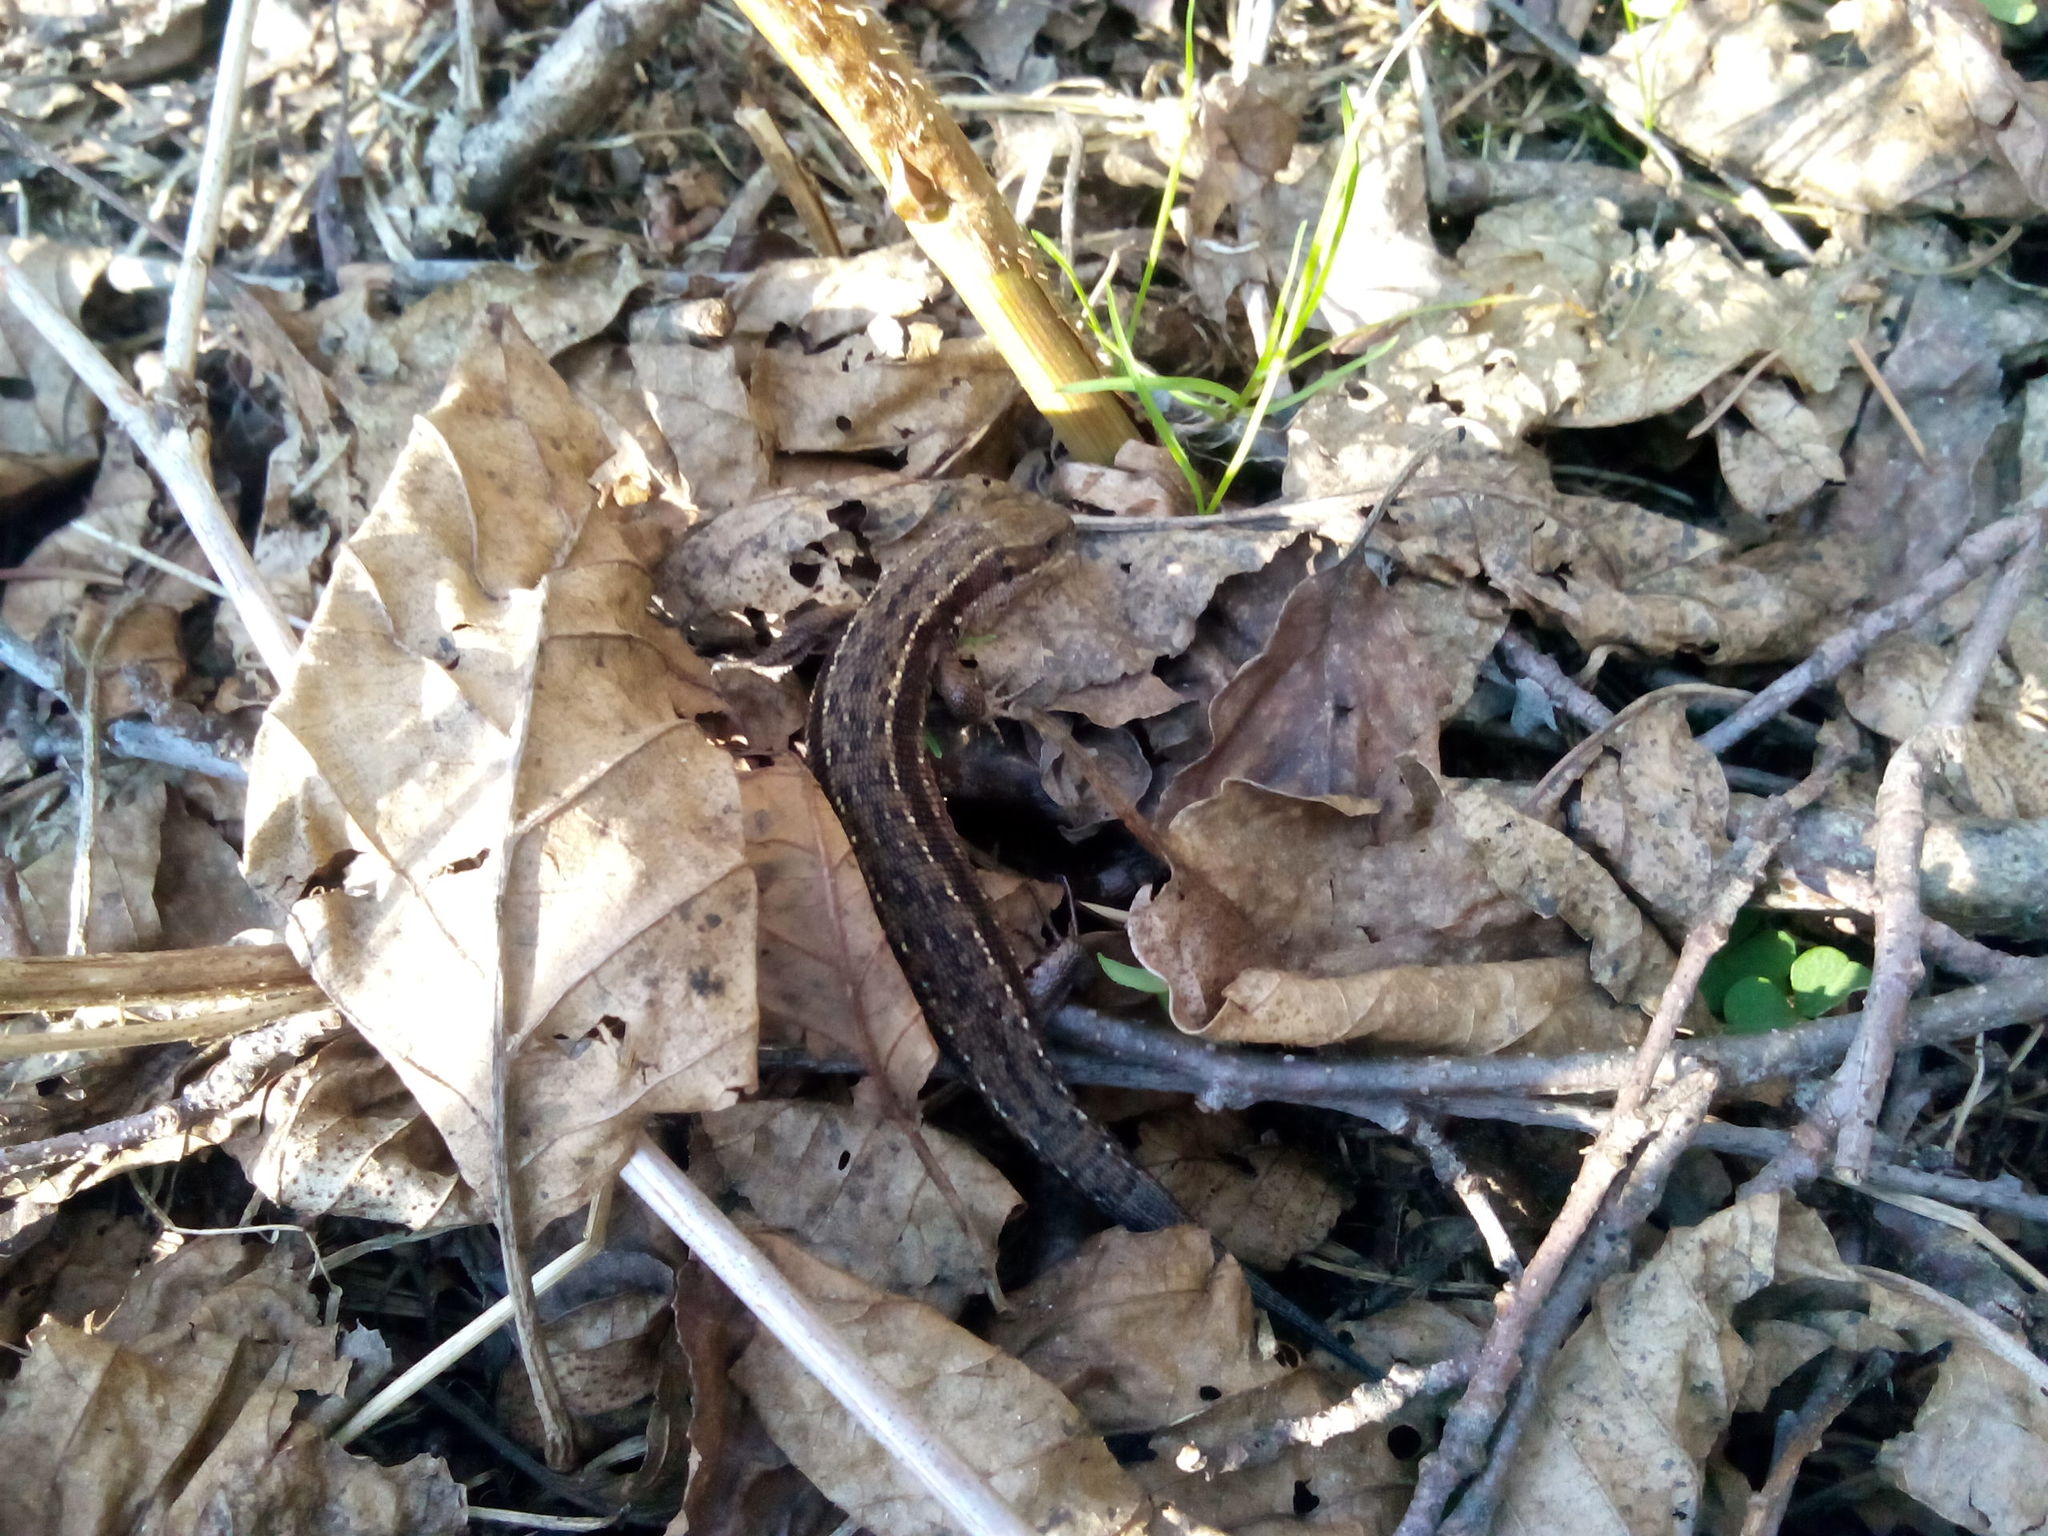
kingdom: Animalia
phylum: Chordata
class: Squamata
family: Lacertidae
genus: Zootoca
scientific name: Zootoca vivipara
